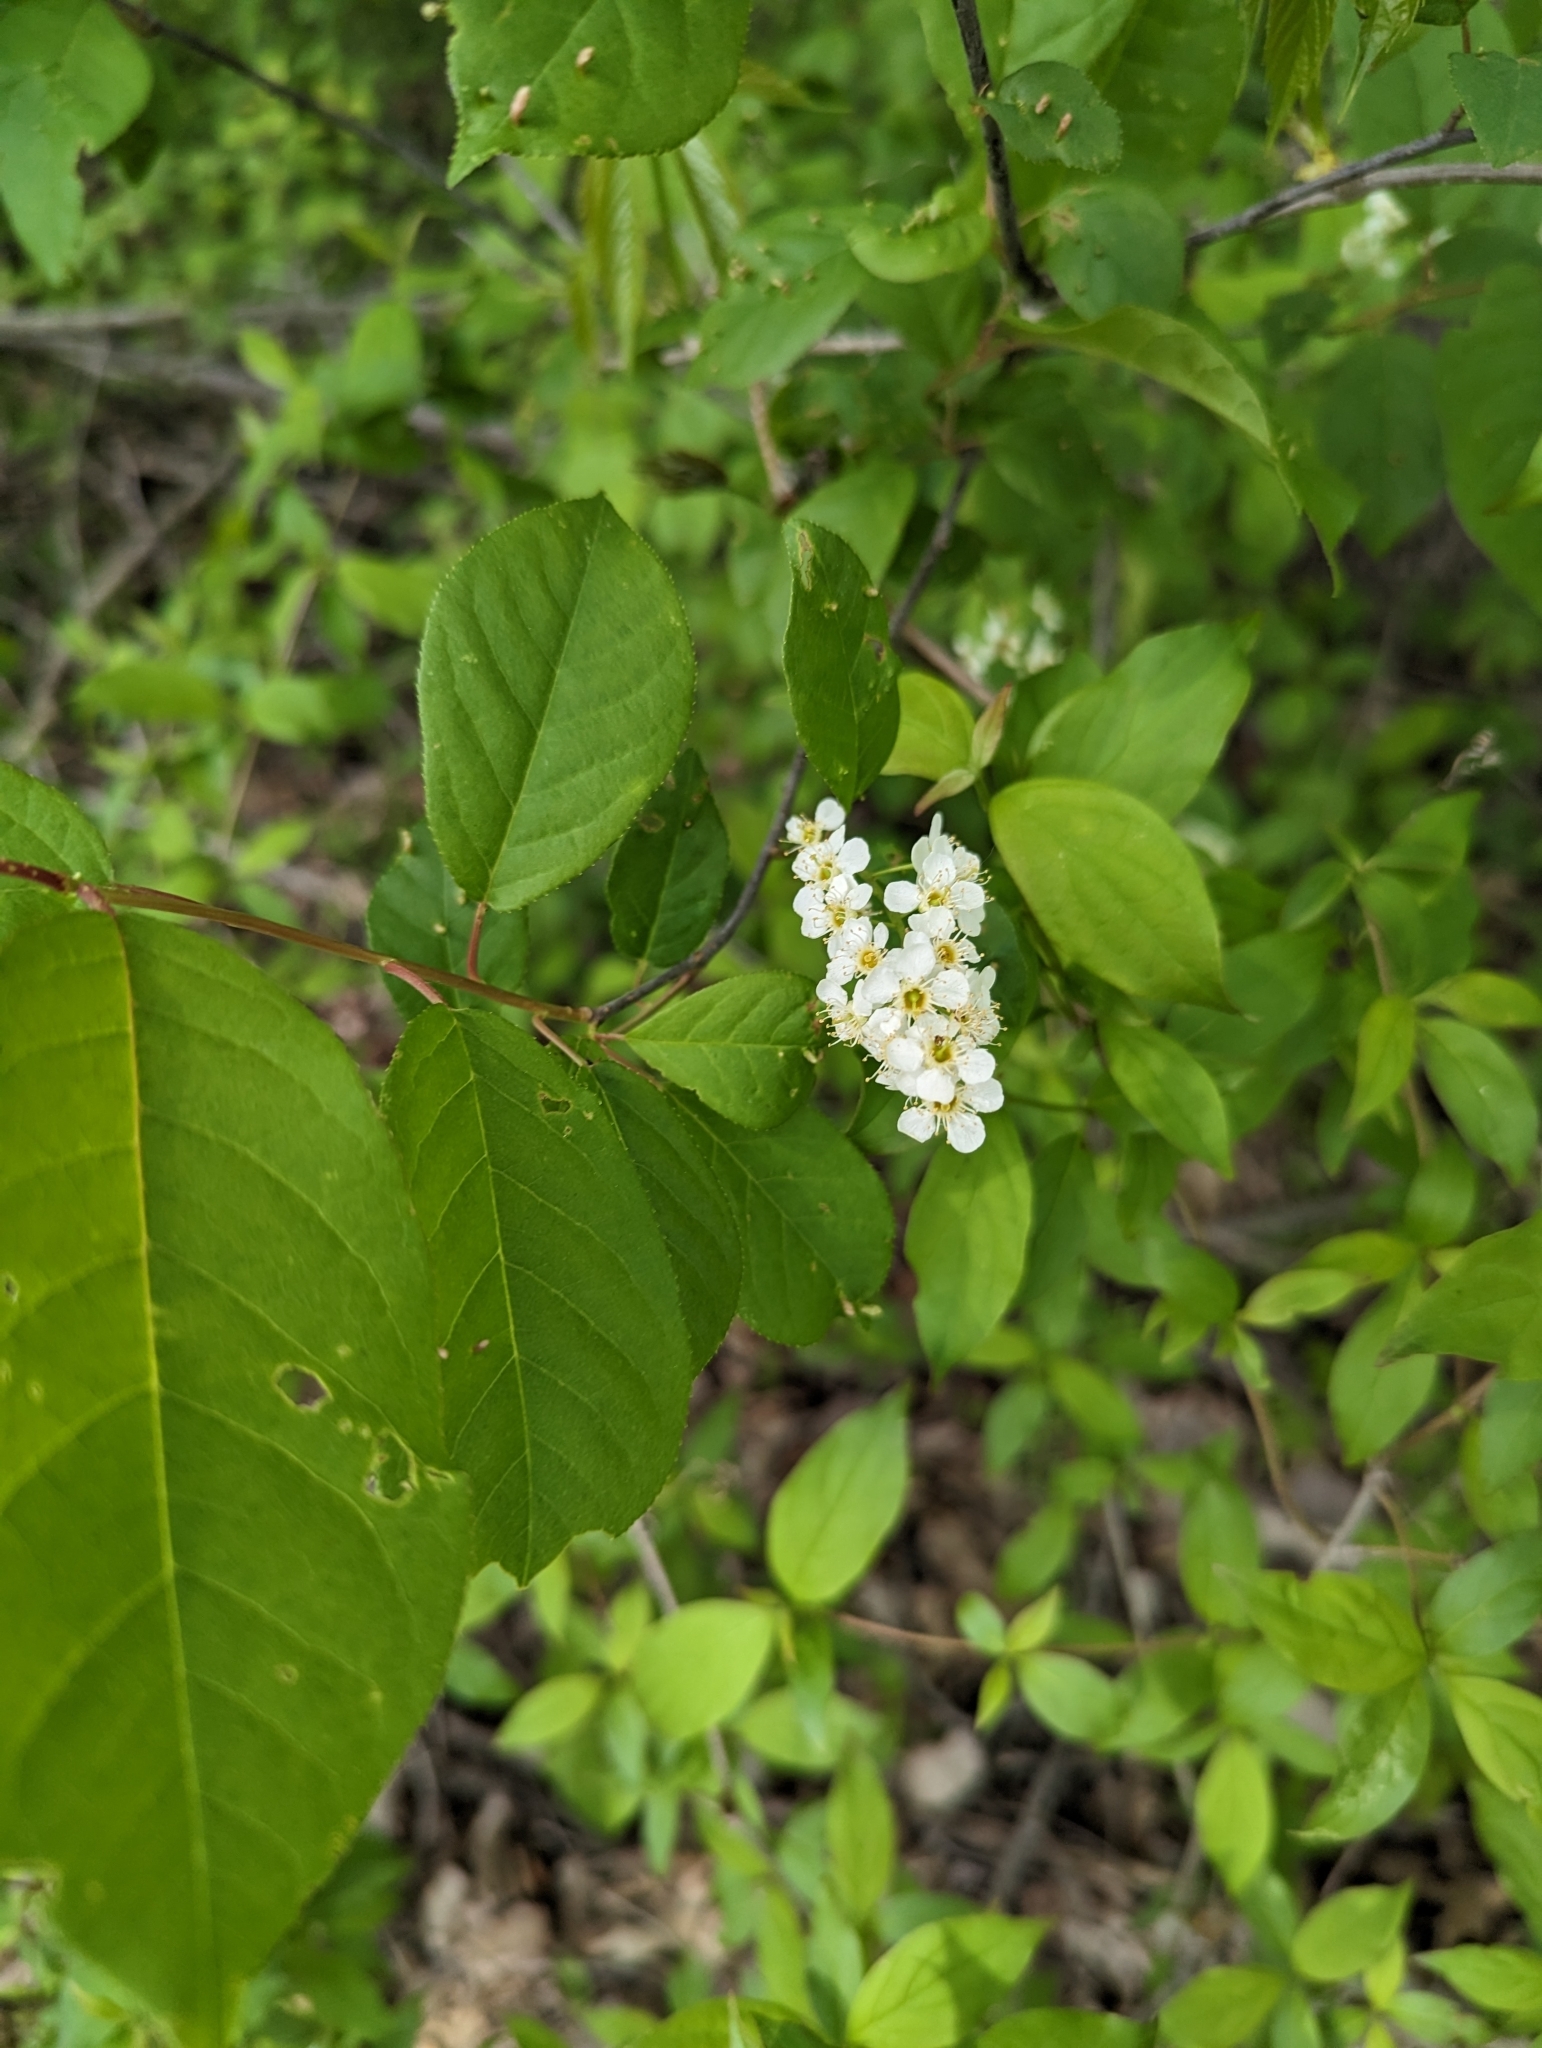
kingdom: Plantae
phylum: Tracheophyta
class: Magnoliopsida
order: Rosales
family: Rosaceae
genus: Prunus
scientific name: Prunus virginiana
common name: Chokecherry
